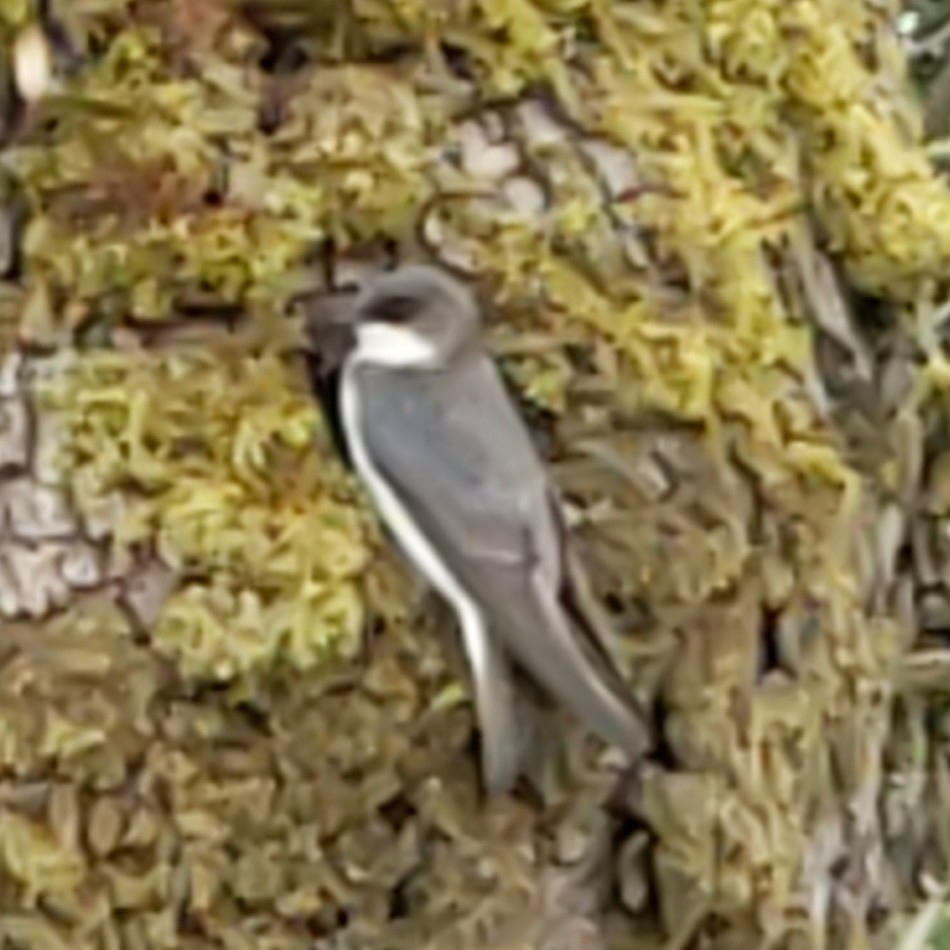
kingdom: Animalia
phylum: Chordata
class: Aves
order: Passeriformes
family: Hirundinidae
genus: Tachycineta
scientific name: Tachycineta bicolor
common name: Tree swallow
